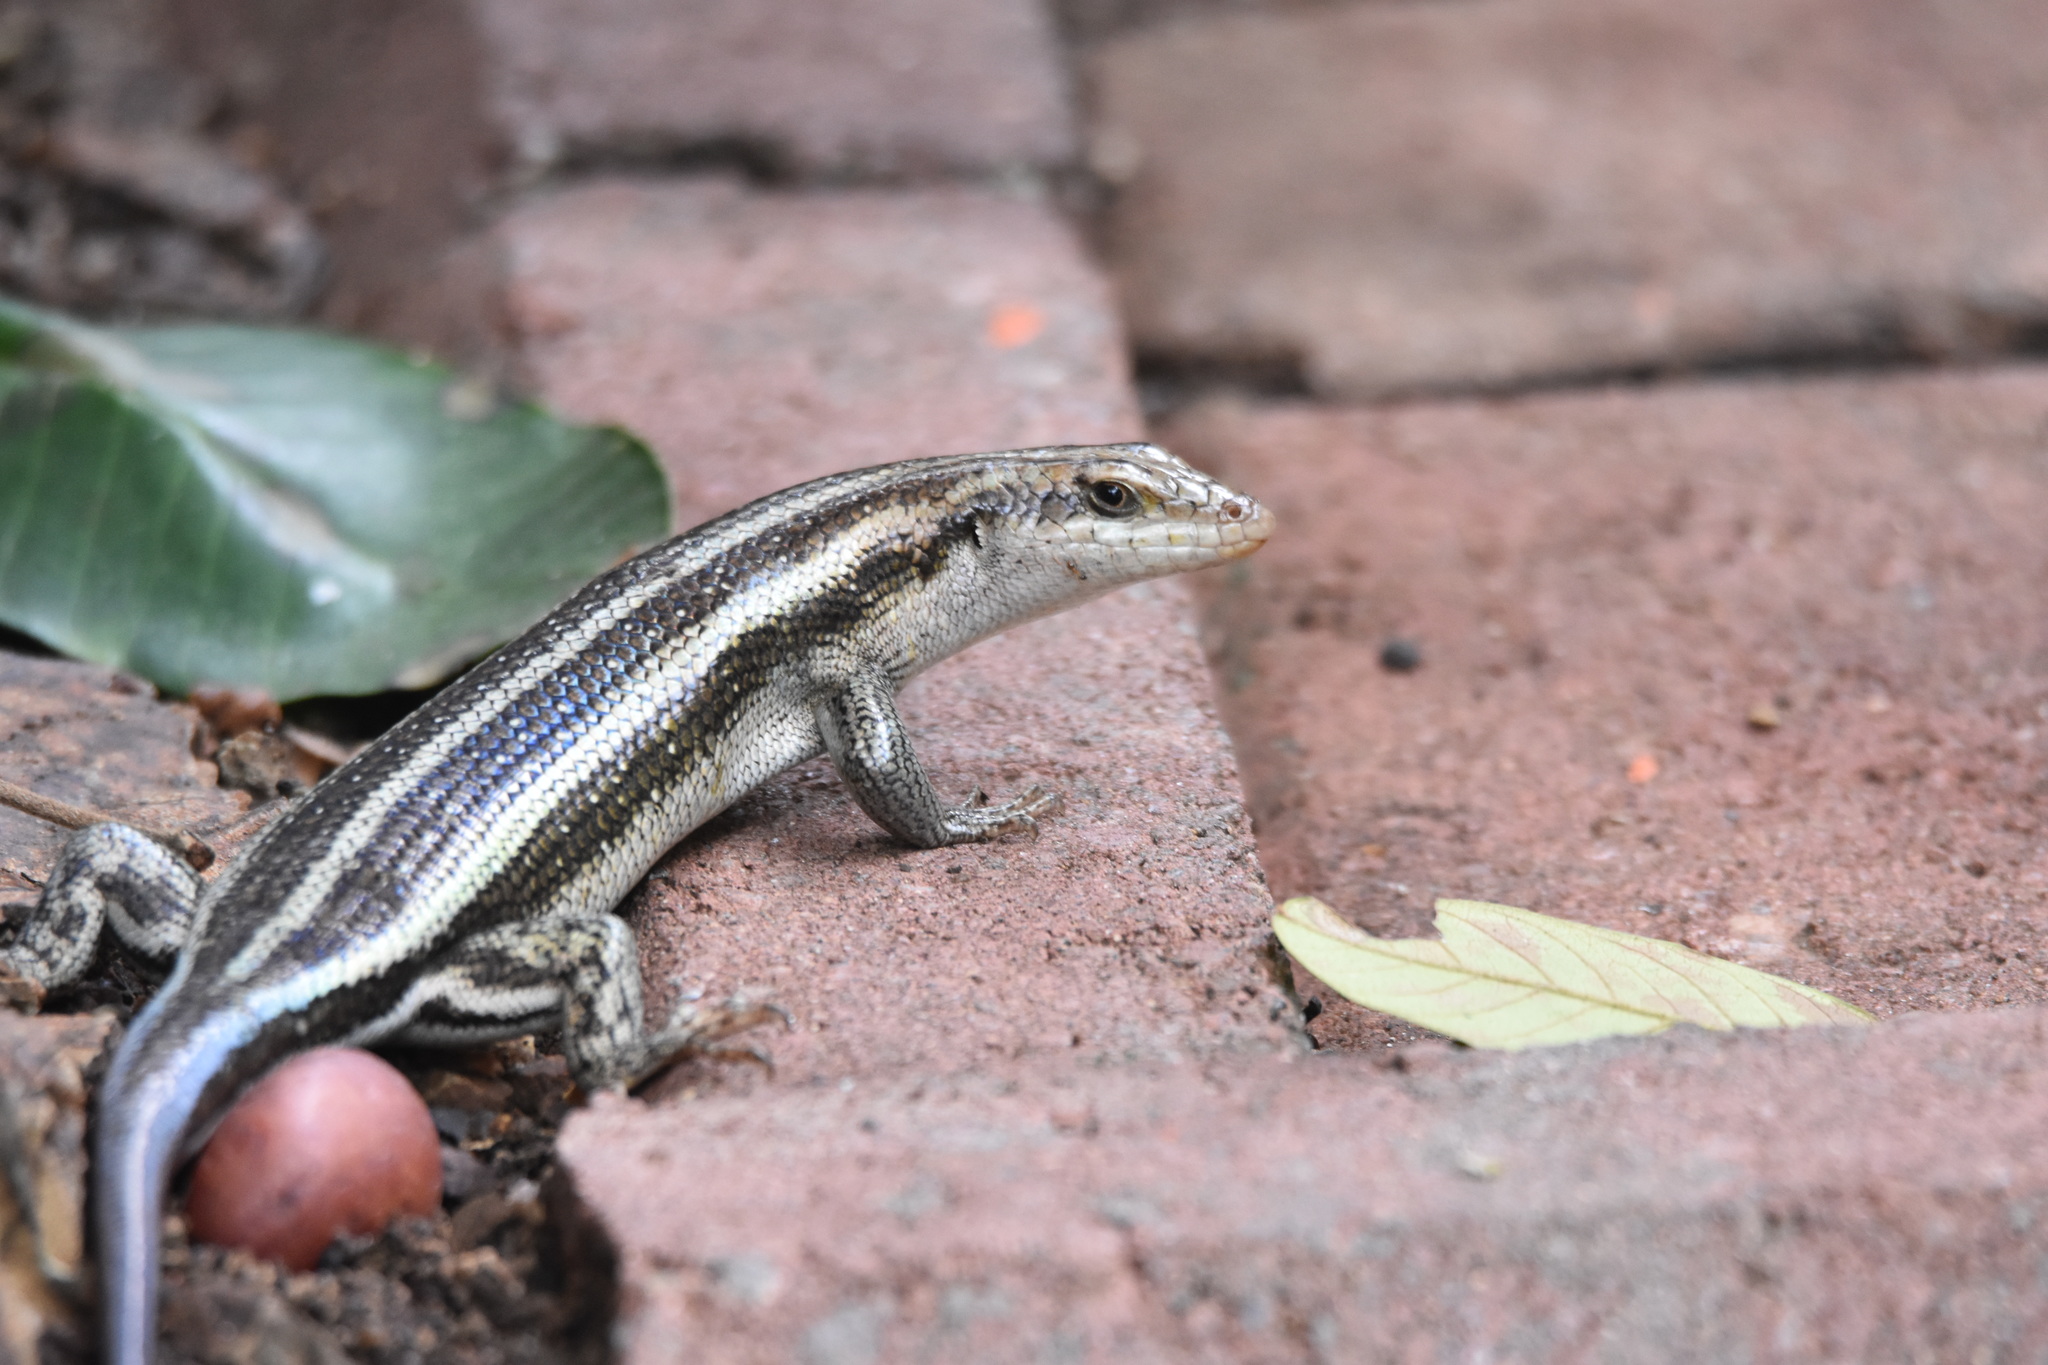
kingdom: Animalia
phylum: Chordata
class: Squamata
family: Scincidae
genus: Trachylepis
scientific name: Trachylepis margaritifera
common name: Rainbow skink
